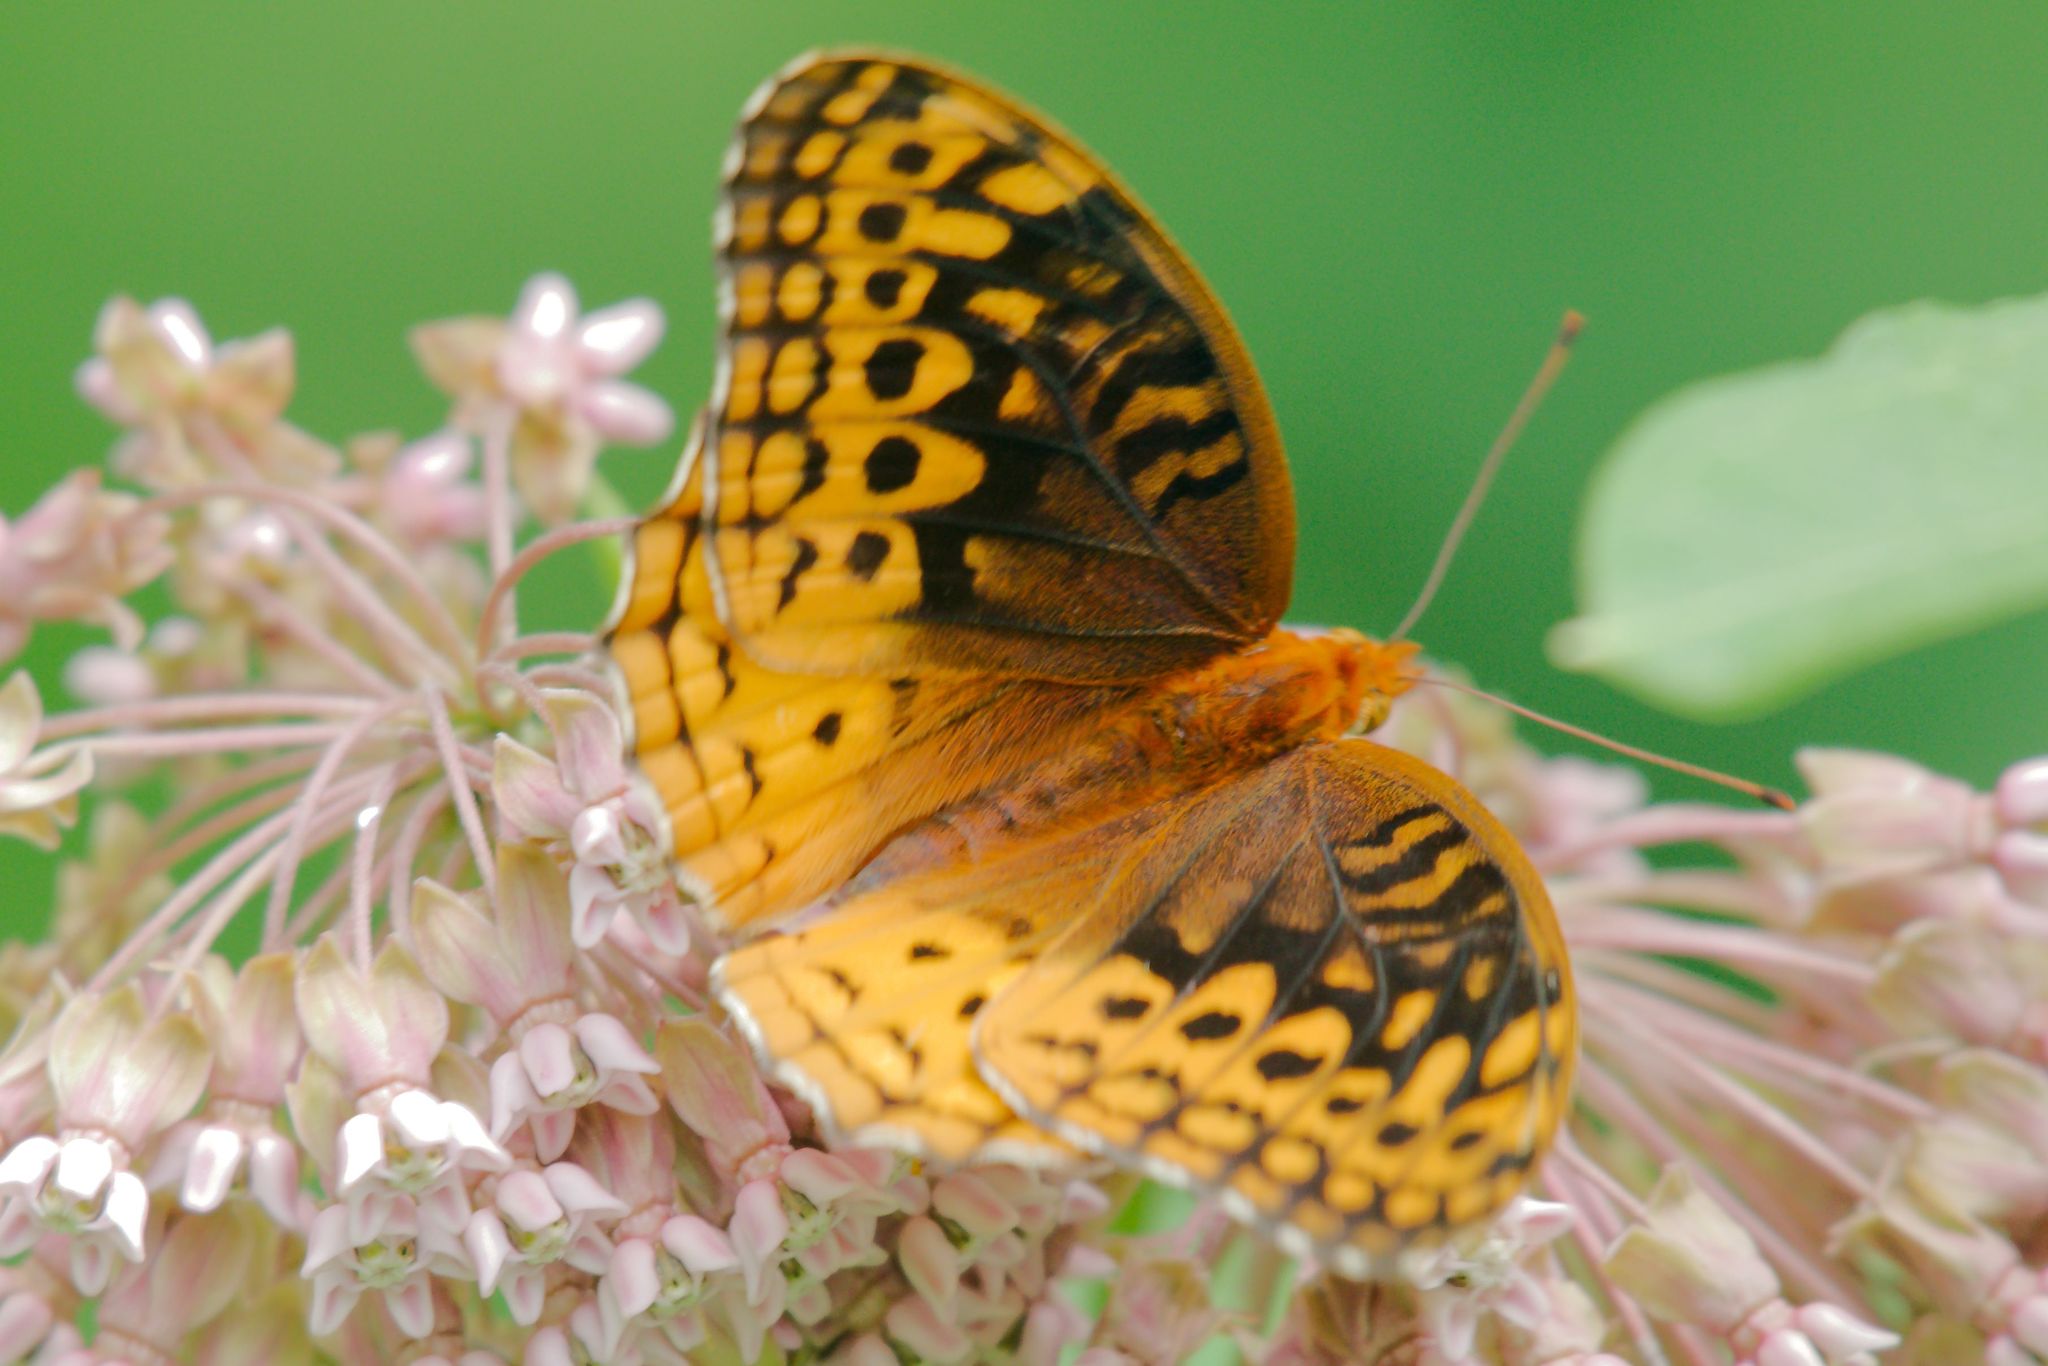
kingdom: Animalia
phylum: Arthropoda
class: Insecta
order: Lepidoptera
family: Nymphalidae
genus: Speyeria
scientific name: Speyeria cybele
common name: Great spangled fritillary
